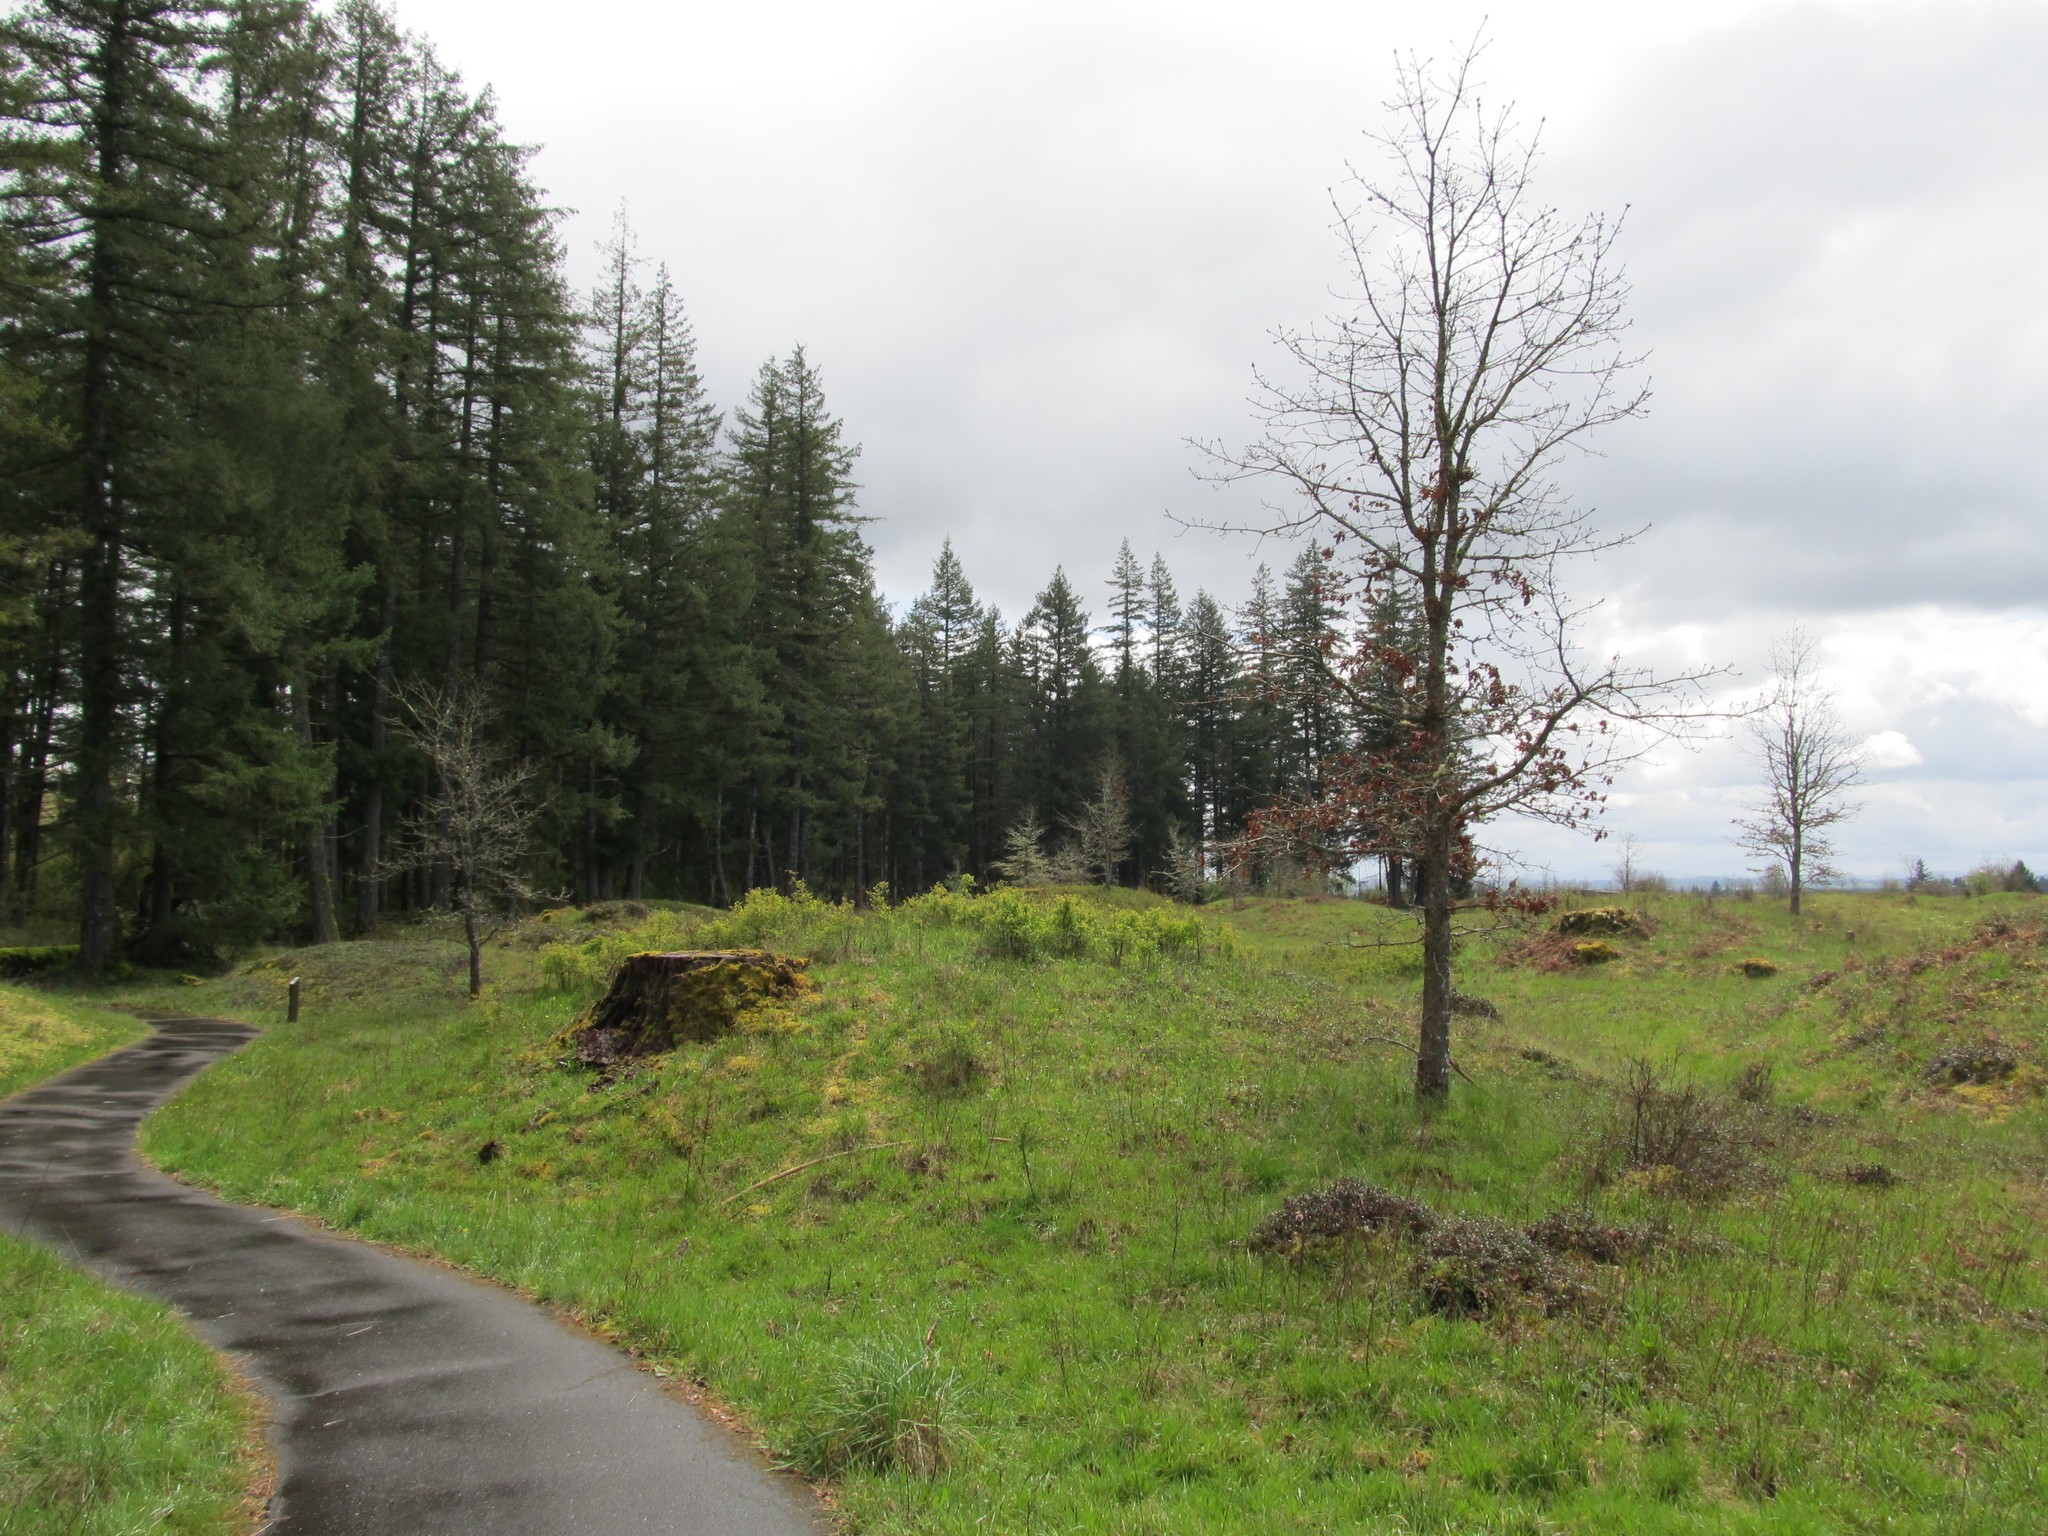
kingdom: Plantae
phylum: Tracheophyta
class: Magnoliopsida
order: Fagales
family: Fagaceae
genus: Quercus
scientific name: Quercus garryana
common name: Garry oak
